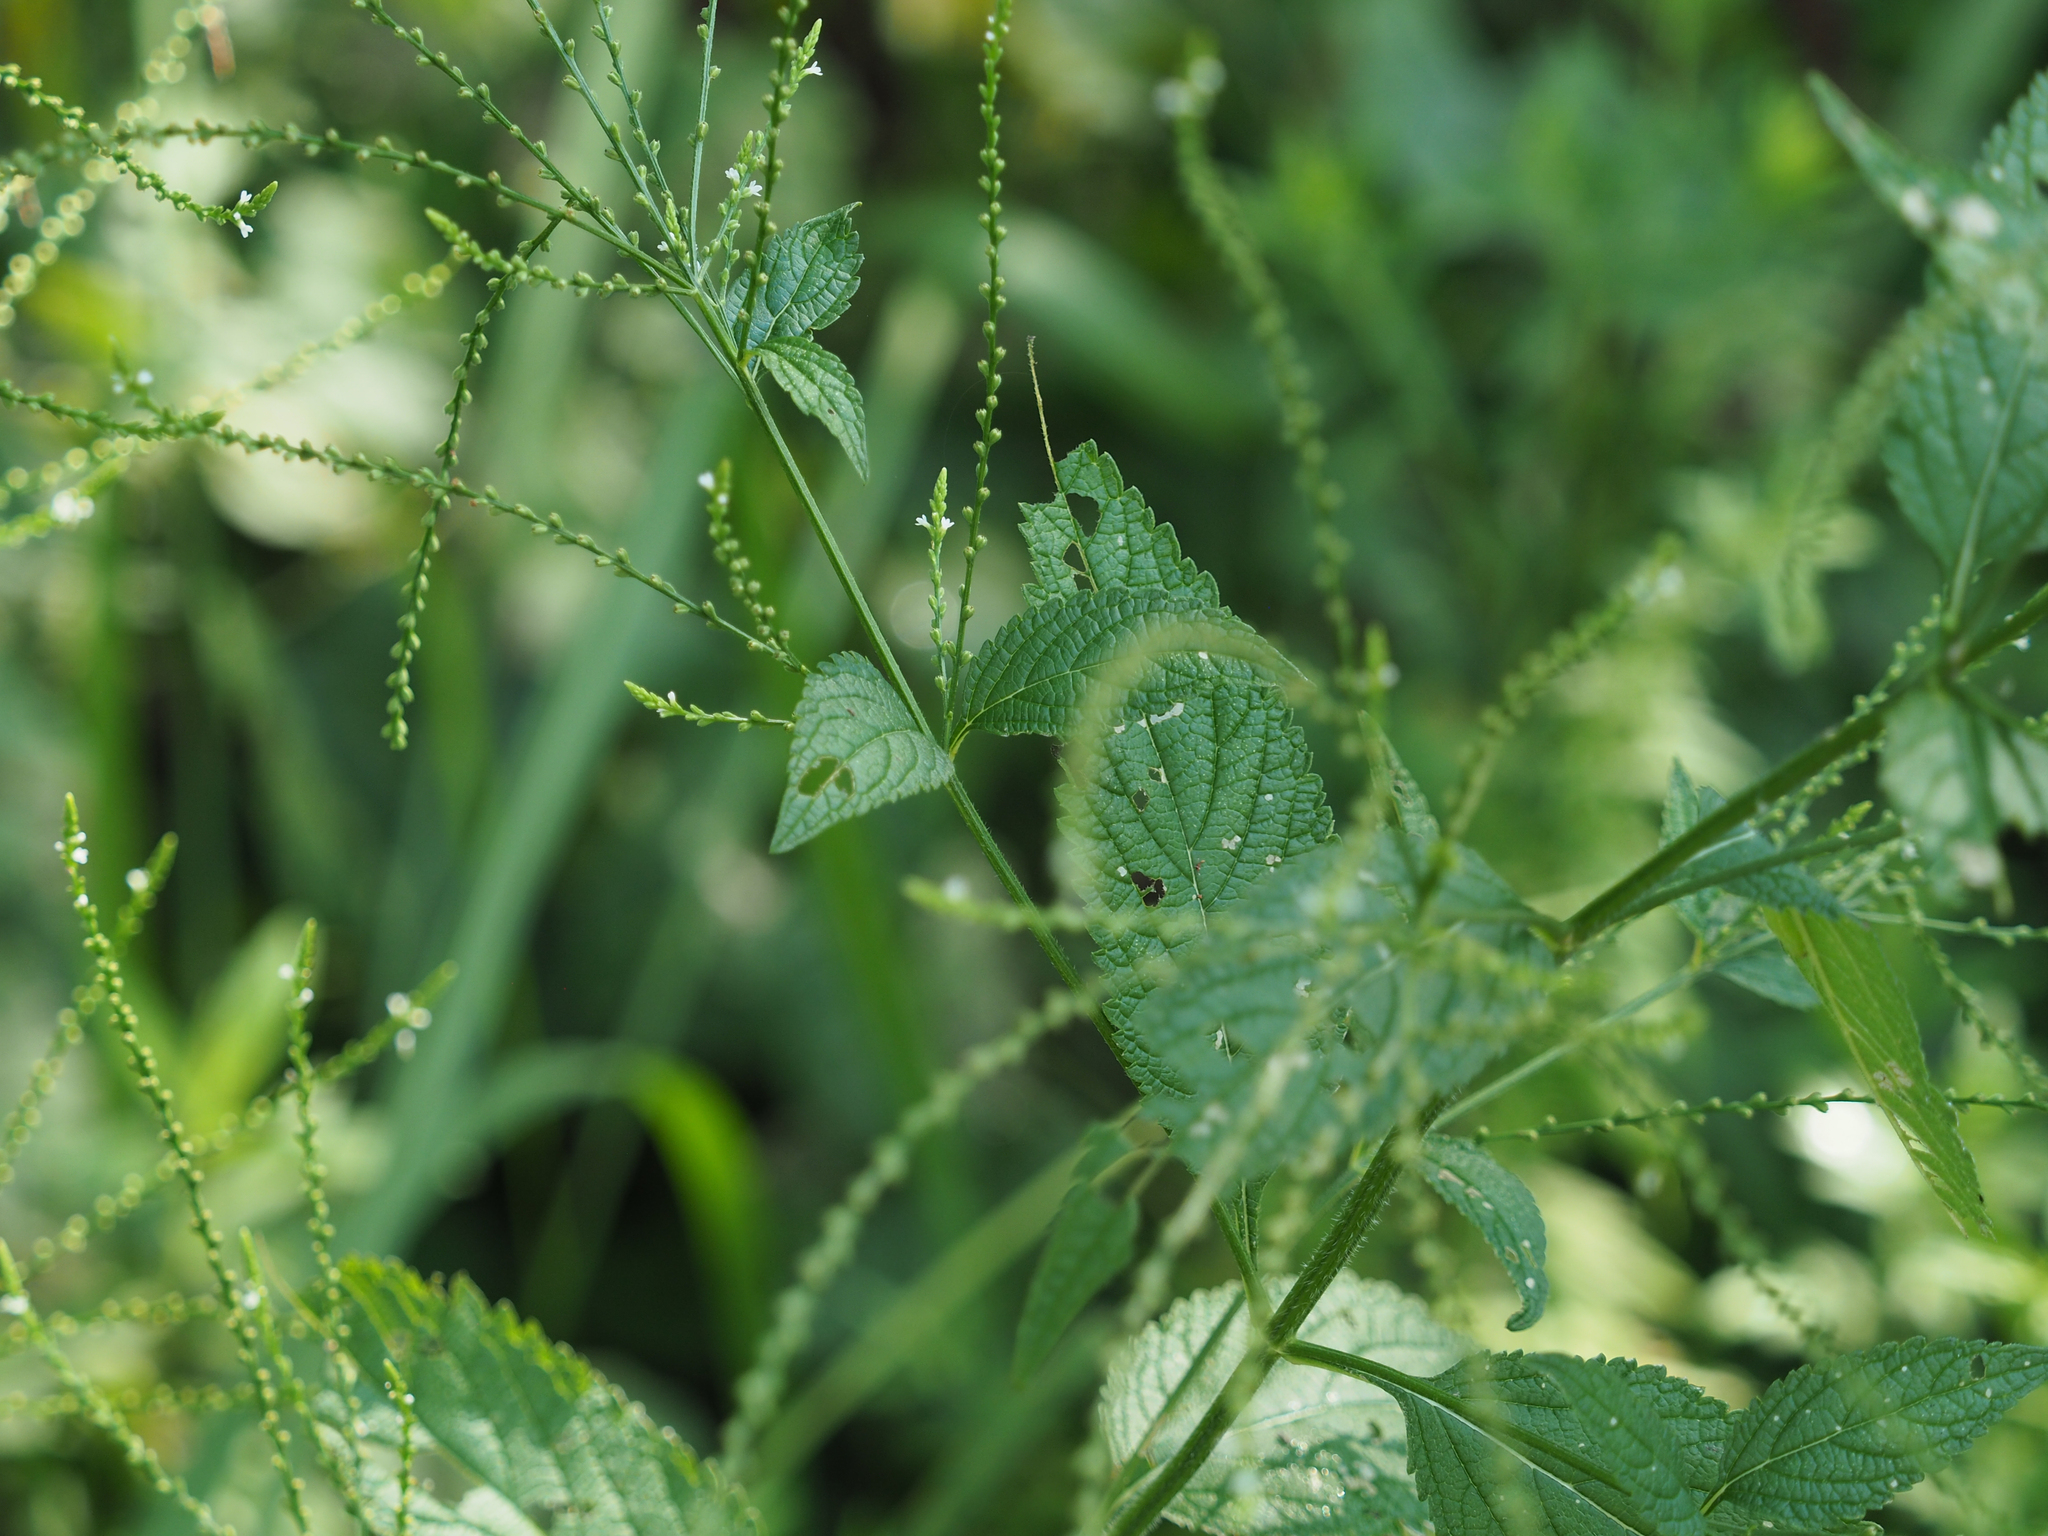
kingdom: Plantae
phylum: Tracheophyta
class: Magnoliopsida
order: Lamiales
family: Verbenaceae
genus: Verbena
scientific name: Verbena urticifolia
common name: Nettle-leaved vervain
